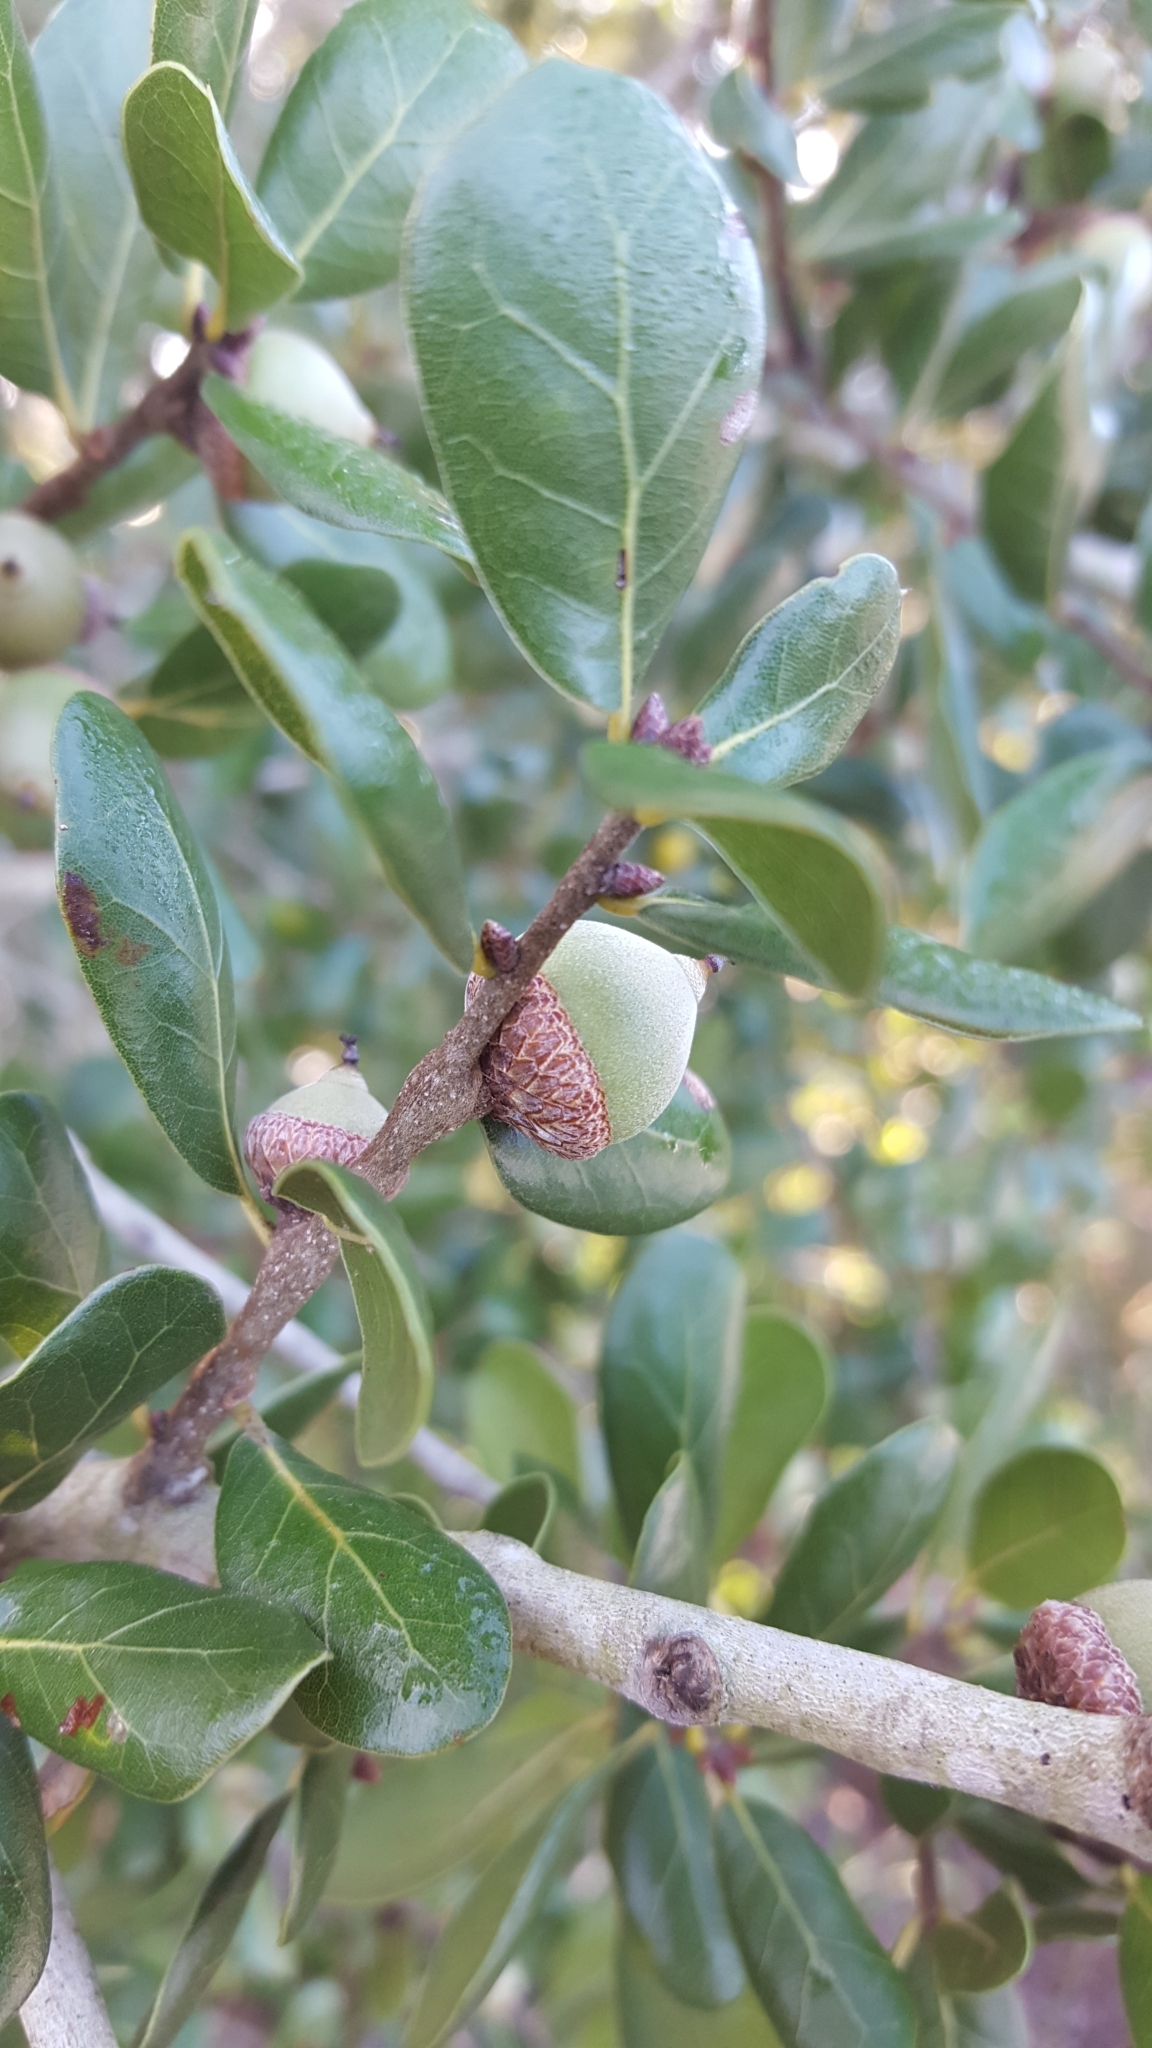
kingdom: Plantae
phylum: Tracheophyta
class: Magnoliopsida
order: Fagales
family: Fagaceae
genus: Quercus
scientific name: Quercus myrtifolia
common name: Myrtle oak
